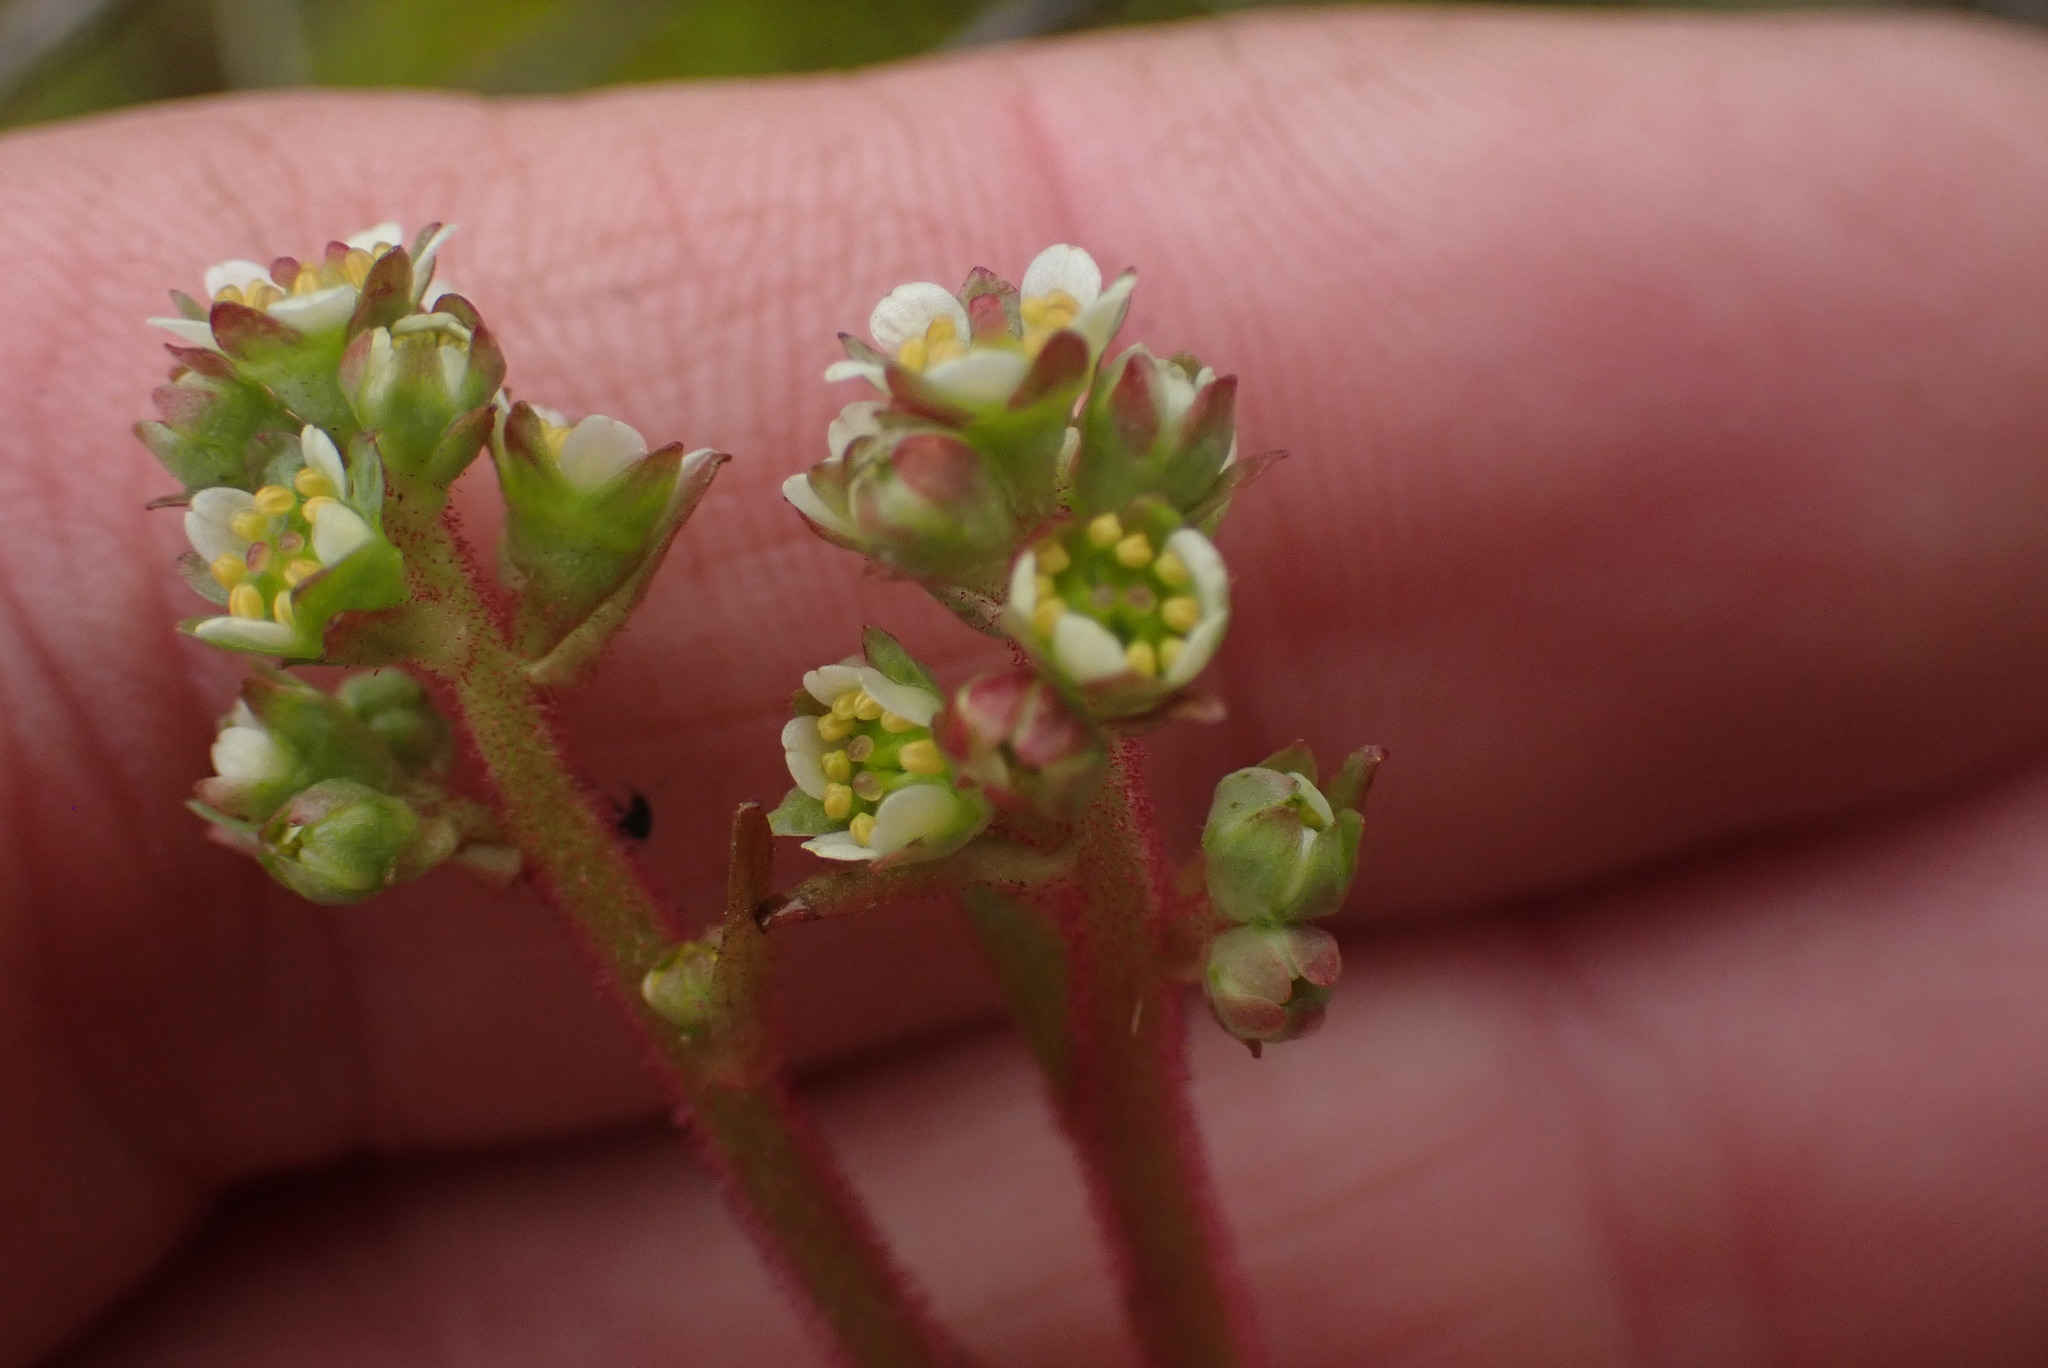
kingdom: Plantae
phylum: Tracheophyta
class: Magnoliopsida
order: Saxifragales
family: Saxifragaceae
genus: Micranthes
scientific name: Micranthes integrifolia
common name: Wholeleaf saxifrage
